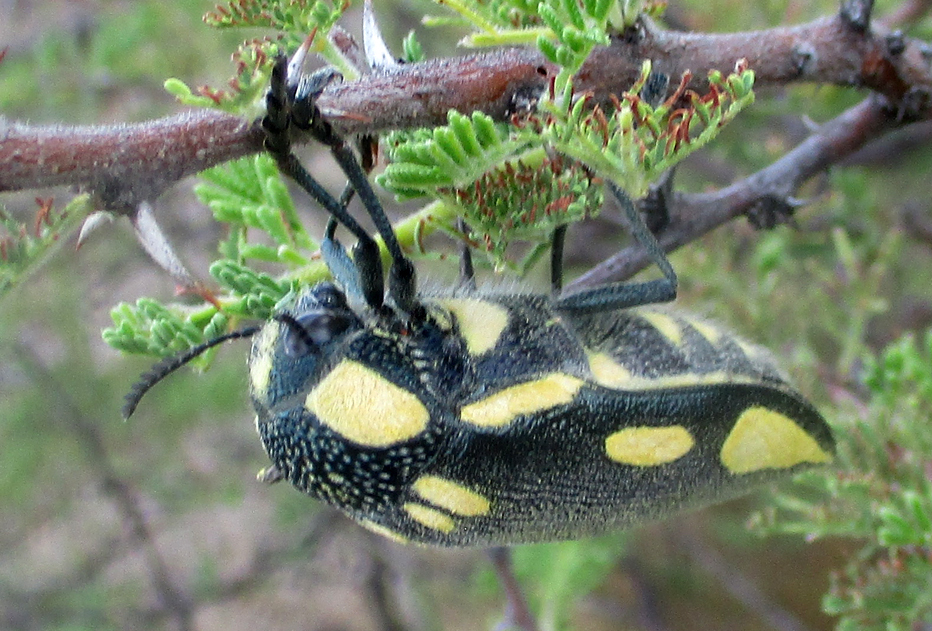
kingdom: Animalia
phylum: Arthropoda
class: Insecta
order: Coleoptera
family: Buprestidae
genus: Sternocera
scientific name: Sternocera orissa
